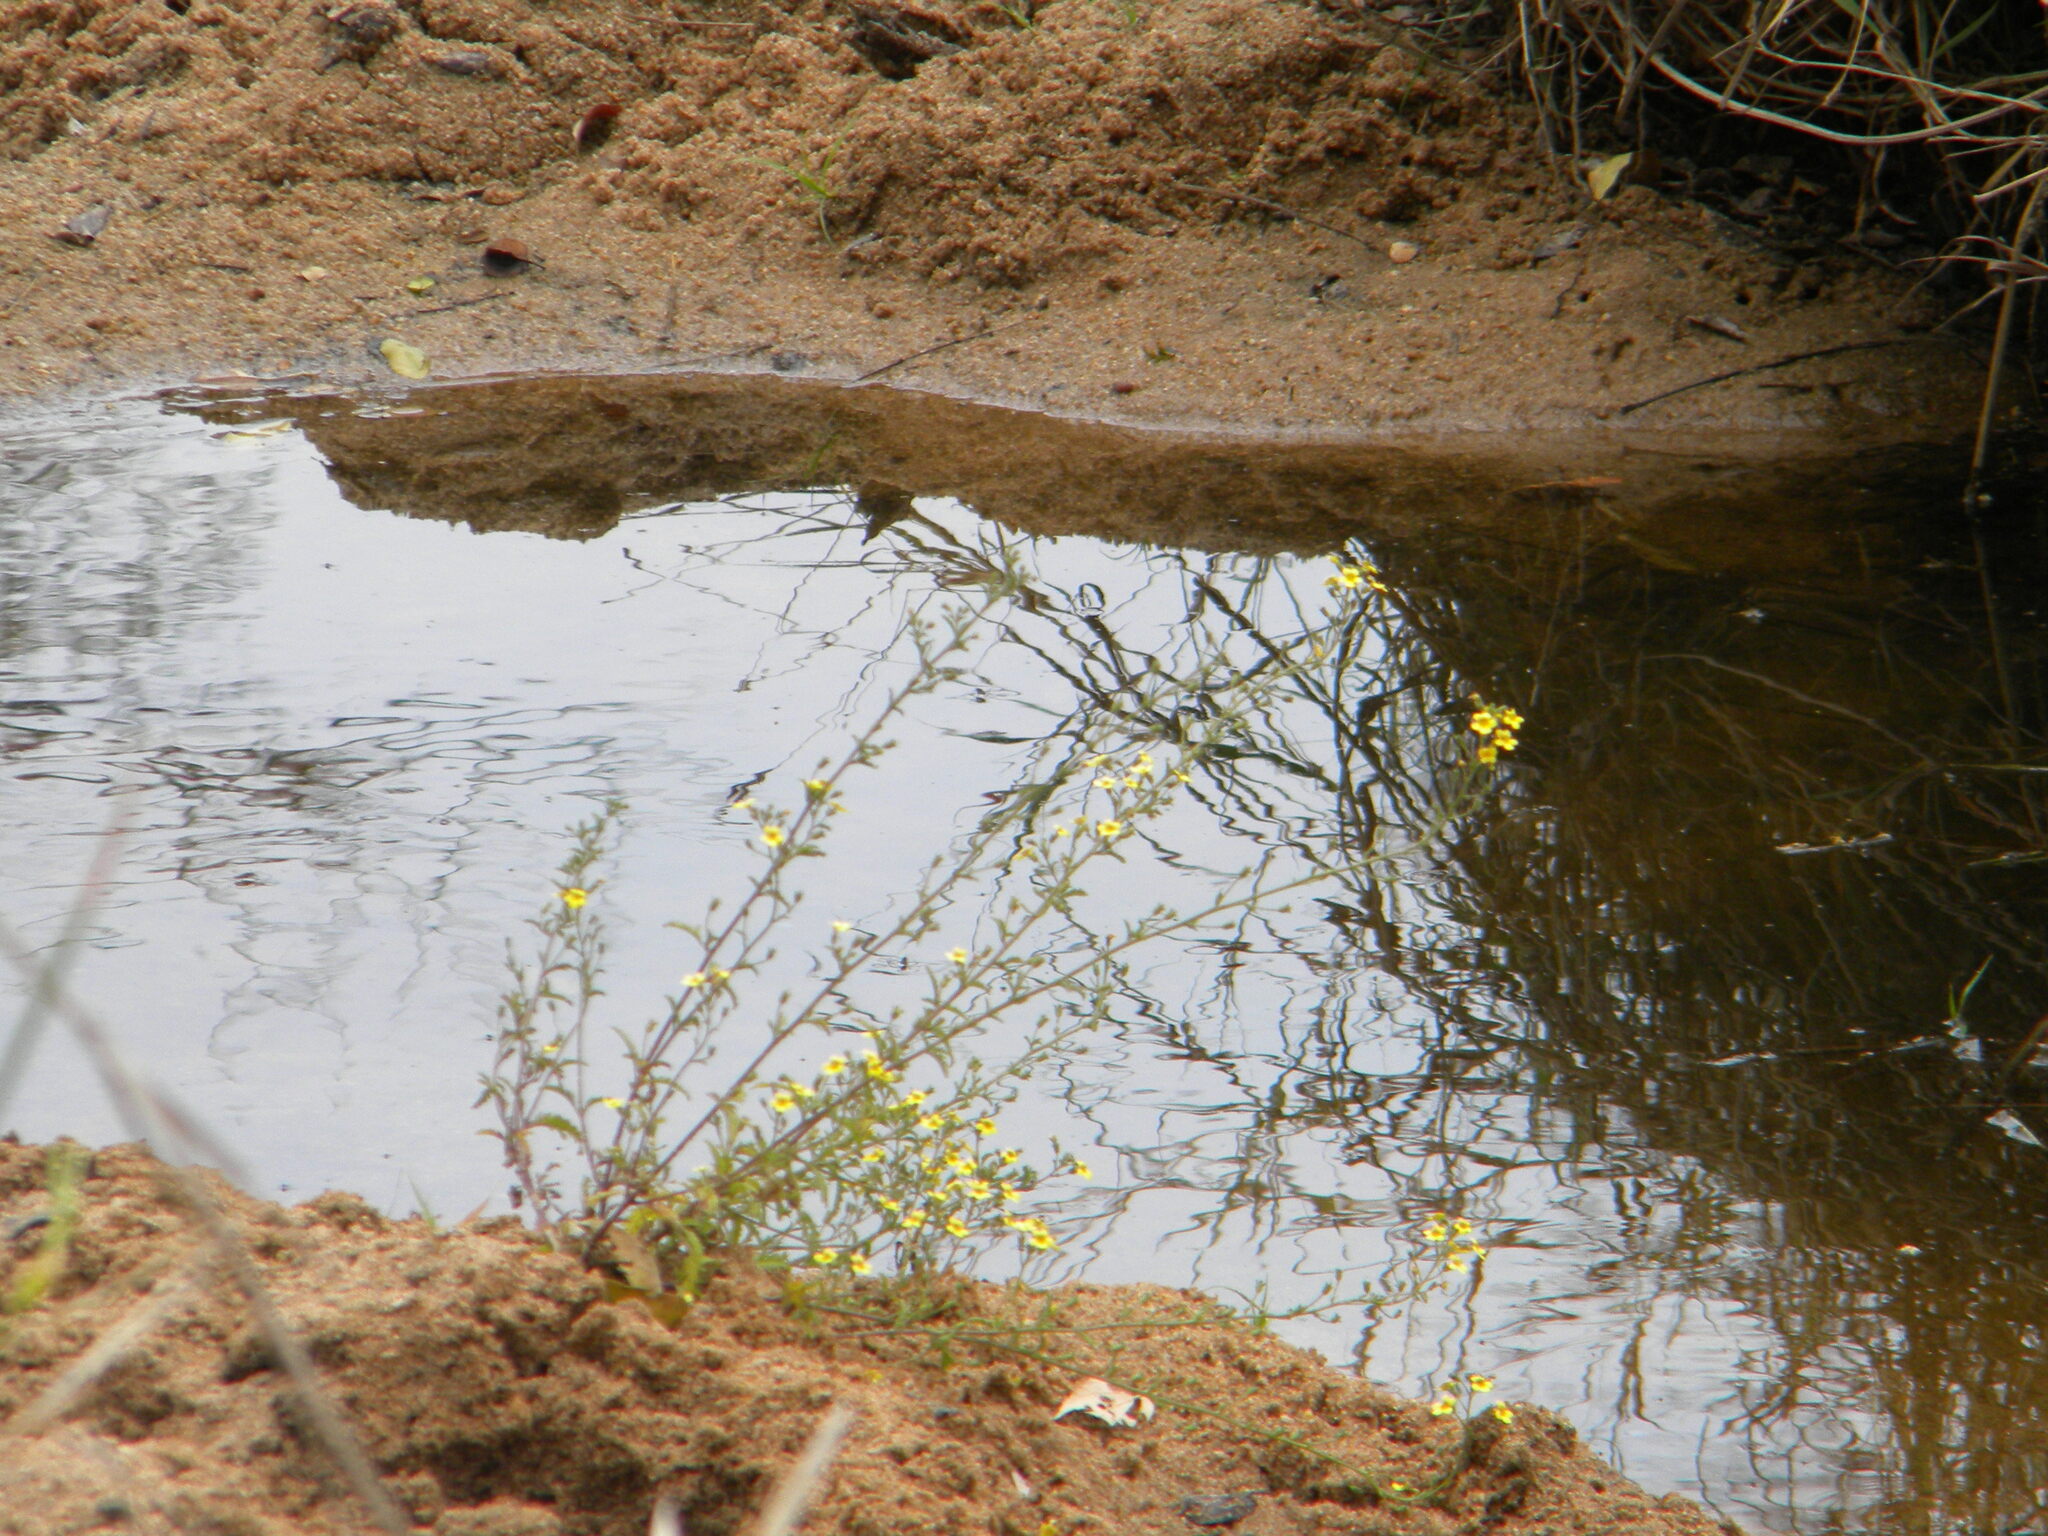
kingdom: Plantae
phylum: Tracheophyta
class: Magnoliopsida
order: Lamiales
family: Scrophulariaceae
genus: Jamesbrittenia
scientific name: Jamesbrittenia micrantha
